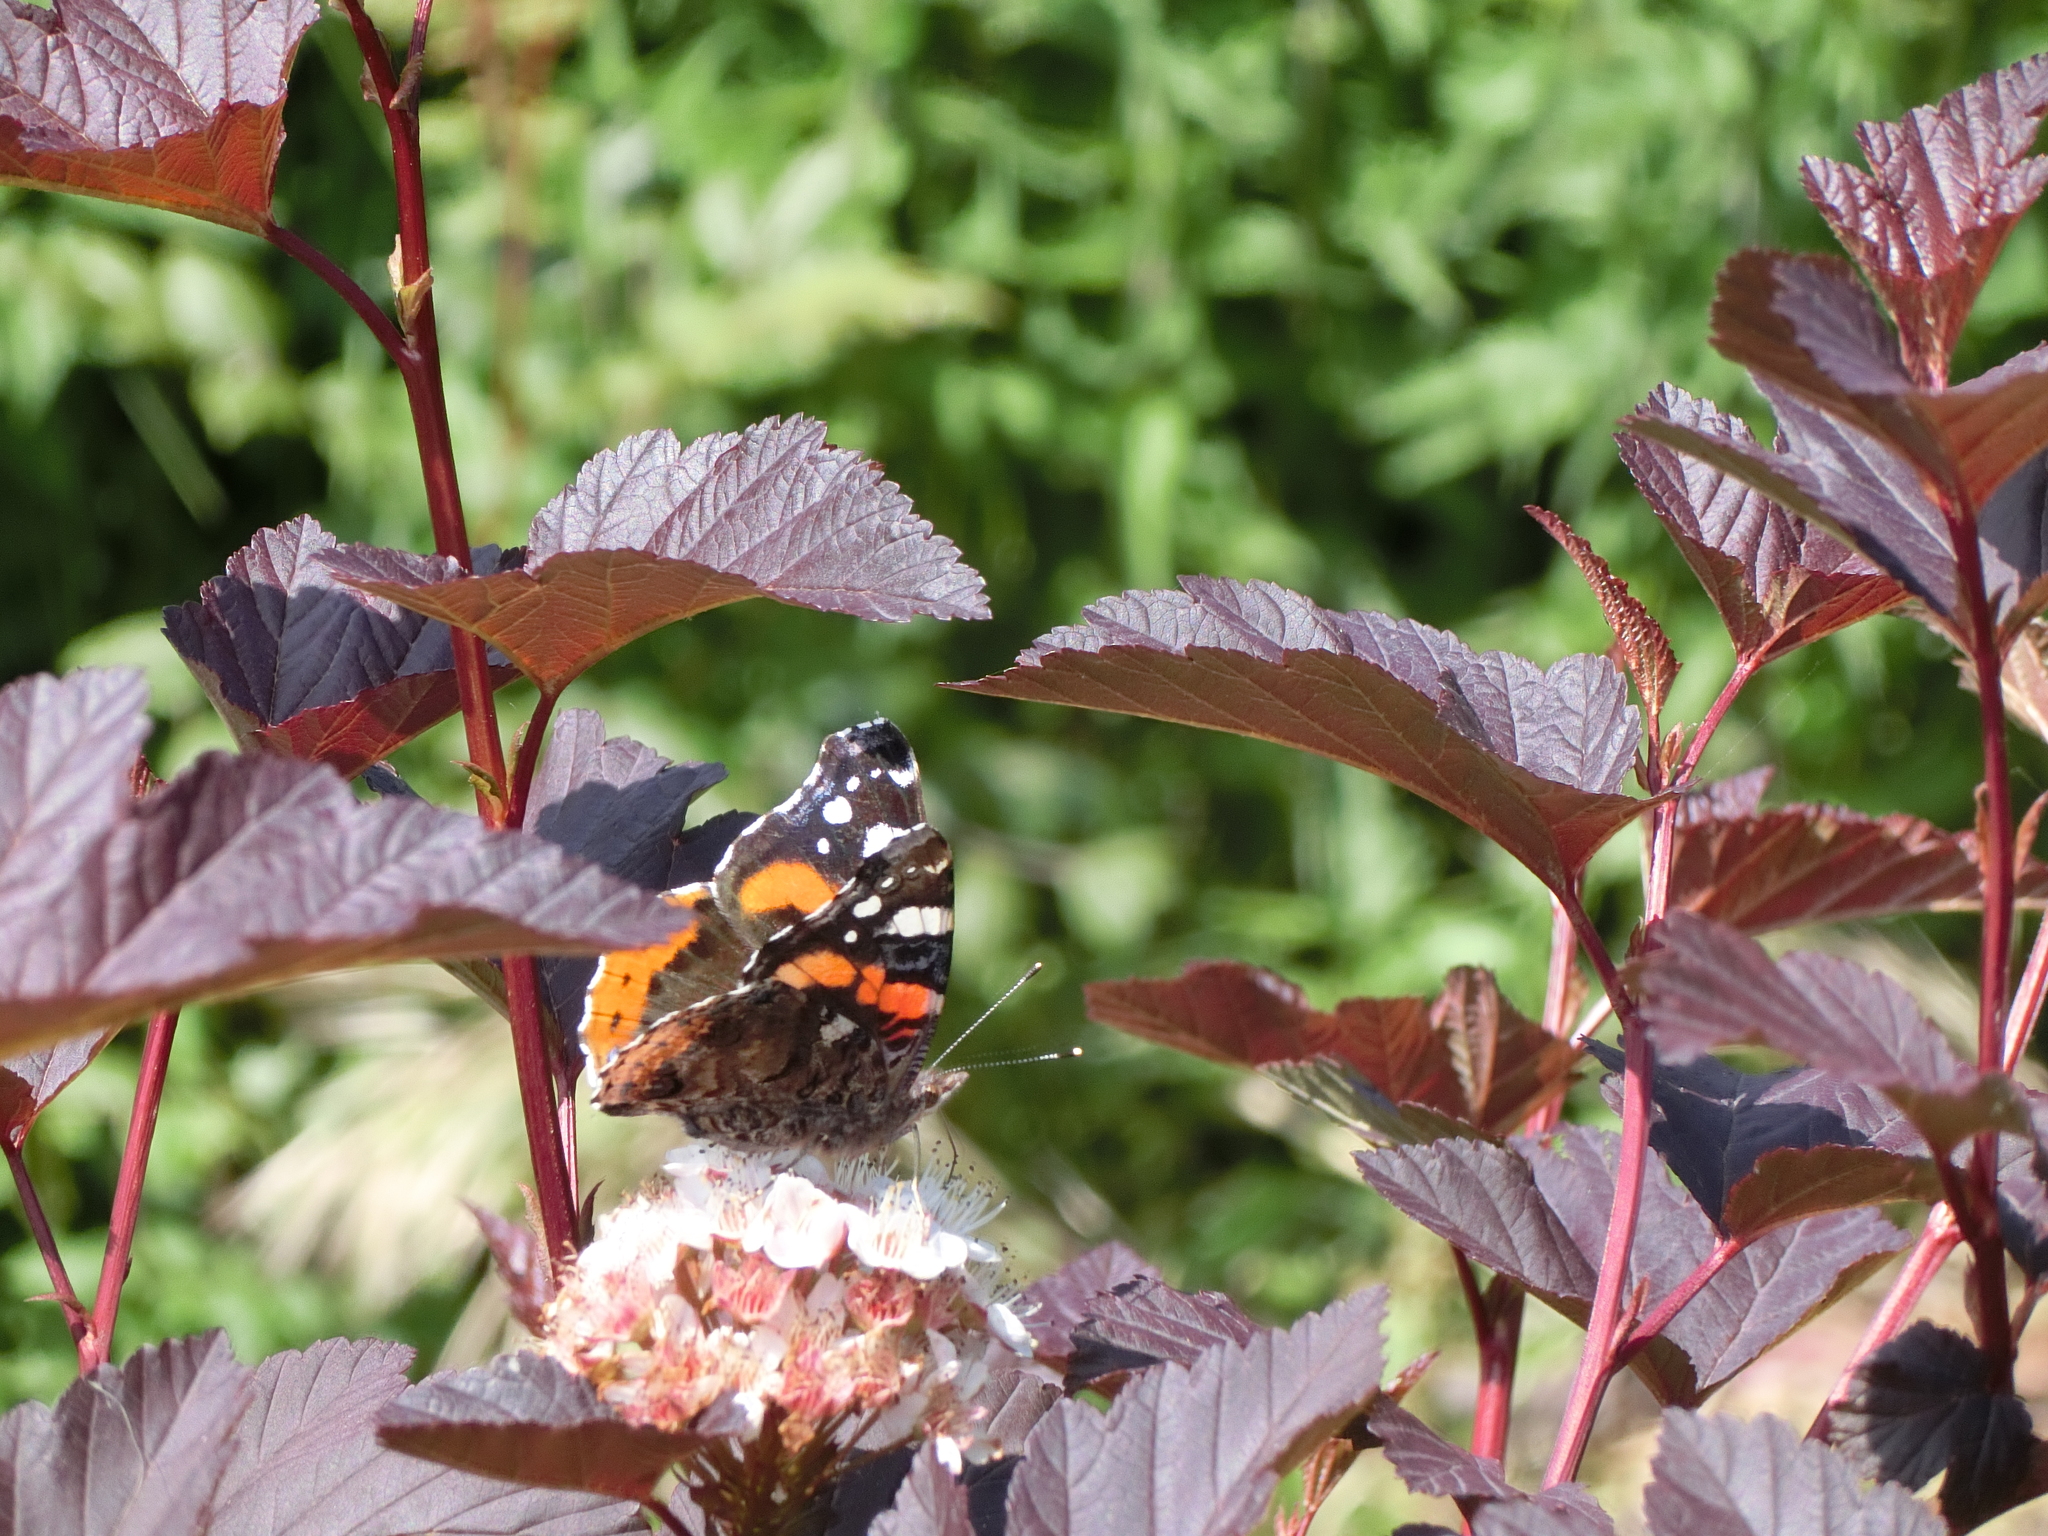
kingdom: Animalia
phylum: Arthropoda
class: Insecta
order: Lepidoptera
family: Nymphalidae
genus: Vanessa
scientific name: Vanessa atalanta
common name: Red admiral
